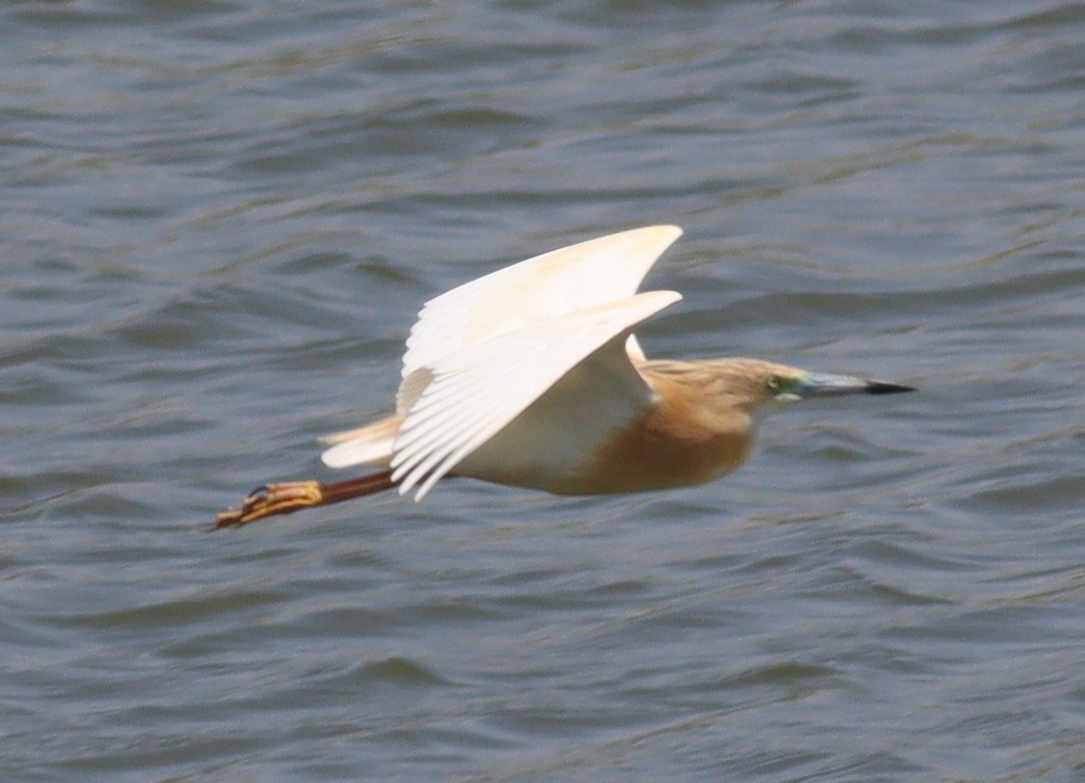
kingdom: Animalia
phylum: Chordata
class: Aves
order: Pelecaniformes
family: Ardeidae
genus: Ardeola
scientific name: Ardeola ralloides
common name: Squacco heron
